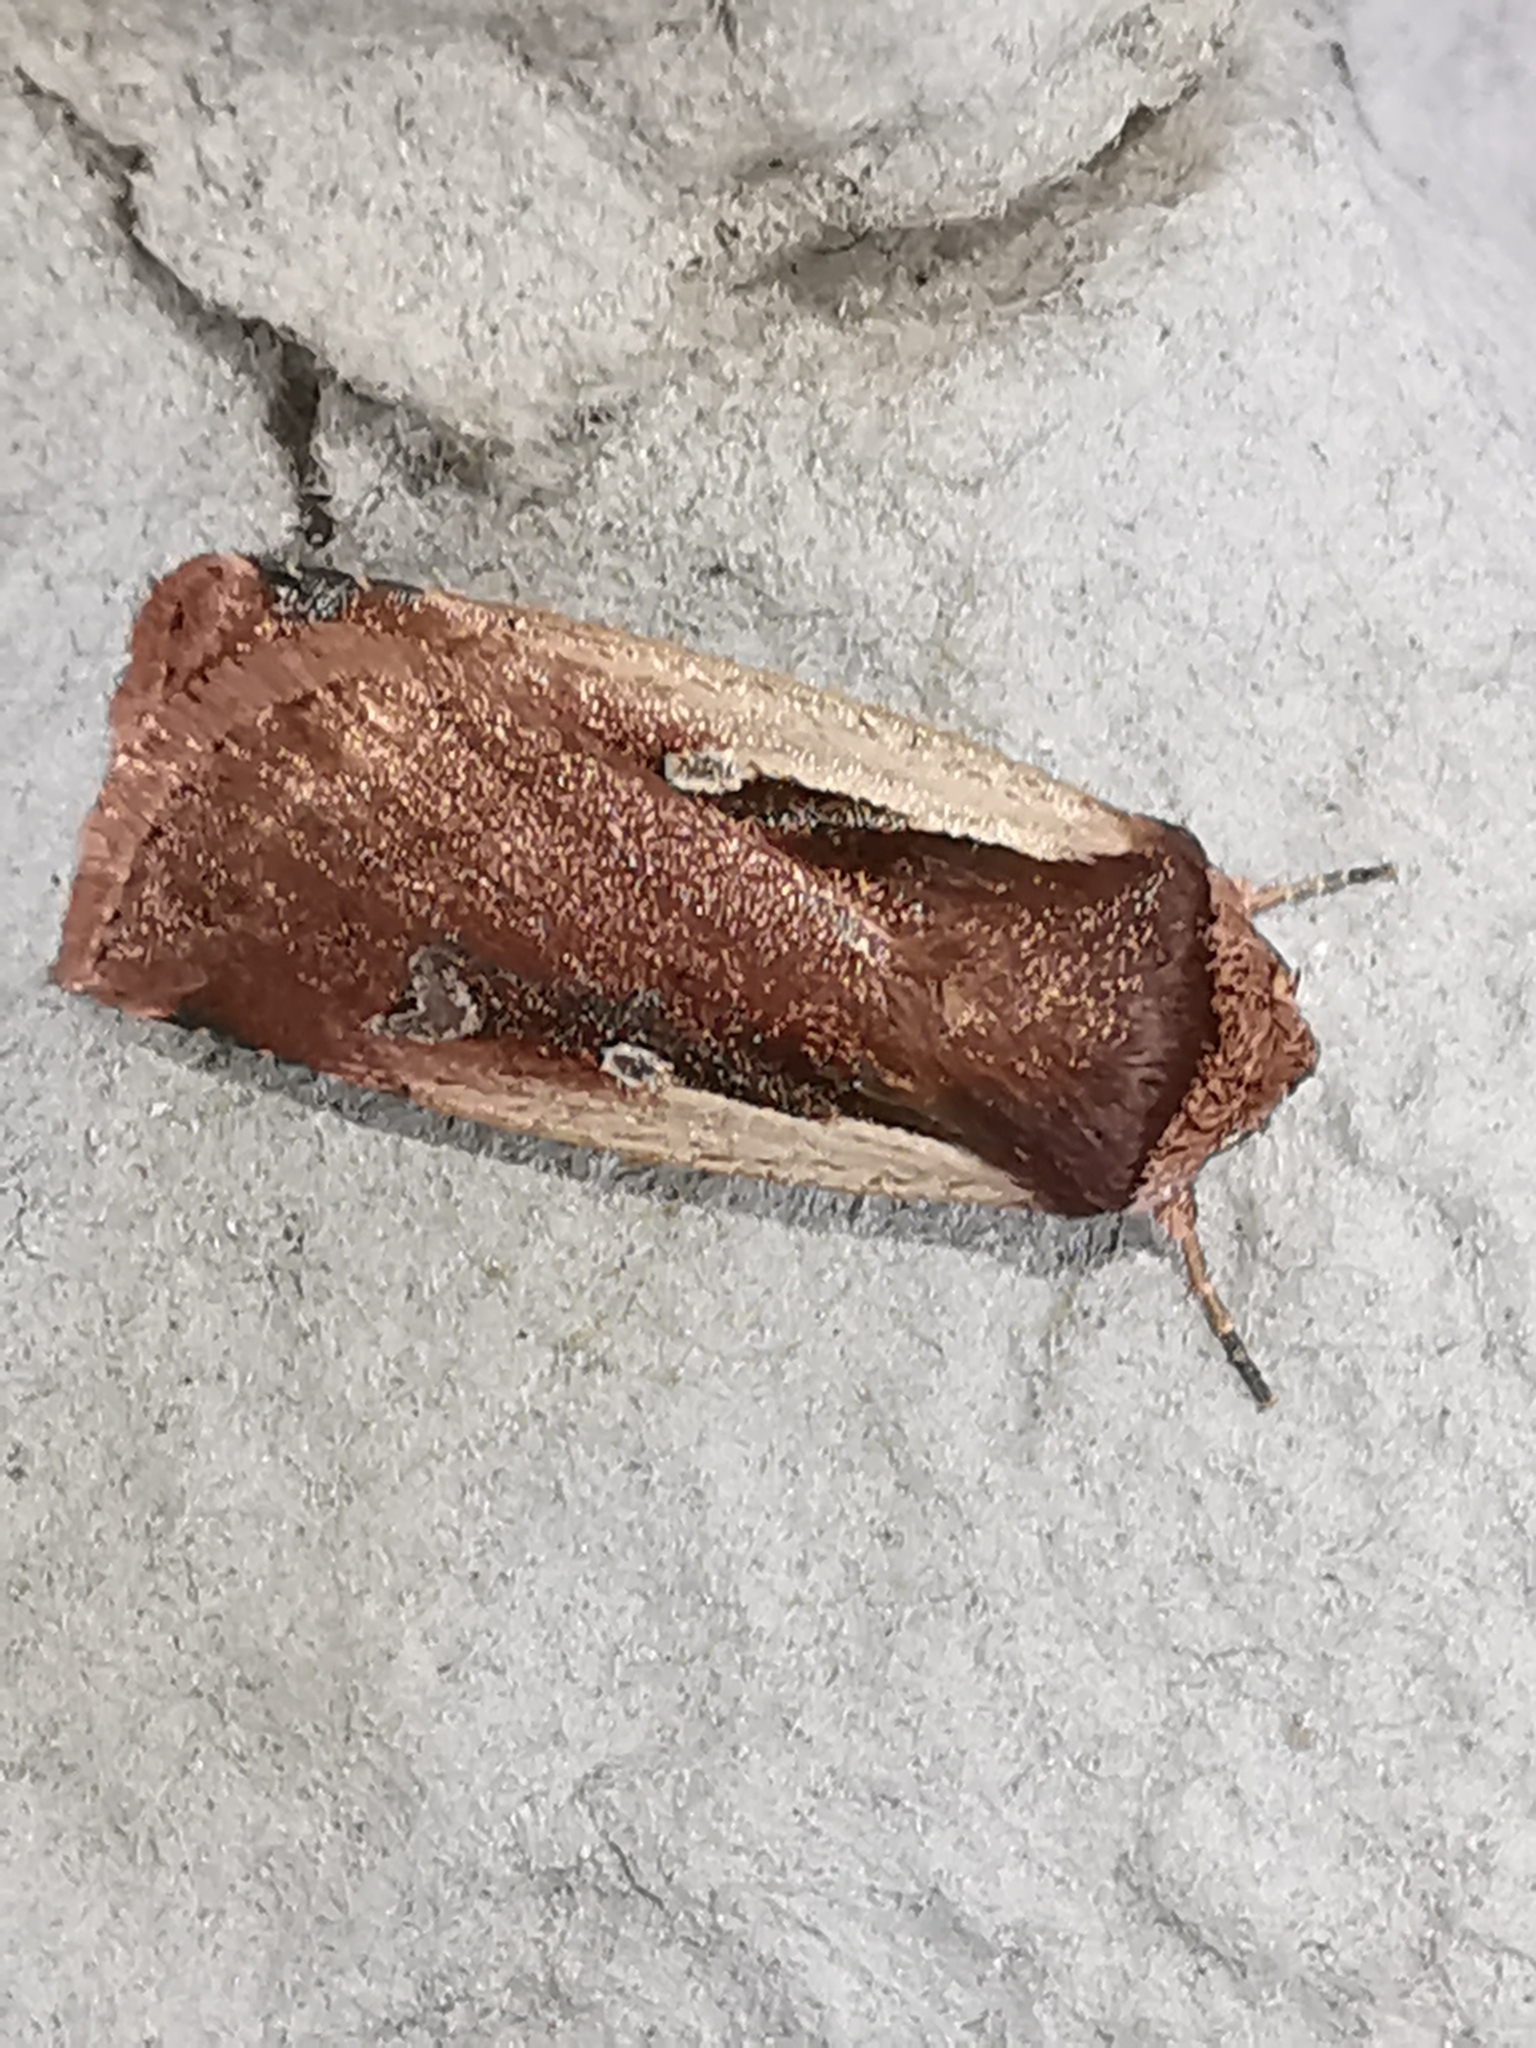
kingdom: Animalia
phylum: Arthropoda
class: Insecta
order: Lepidoptera
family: Noctuidae
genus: Ochropleura
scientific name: Ochropleura plecta
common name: Flame shoulder
